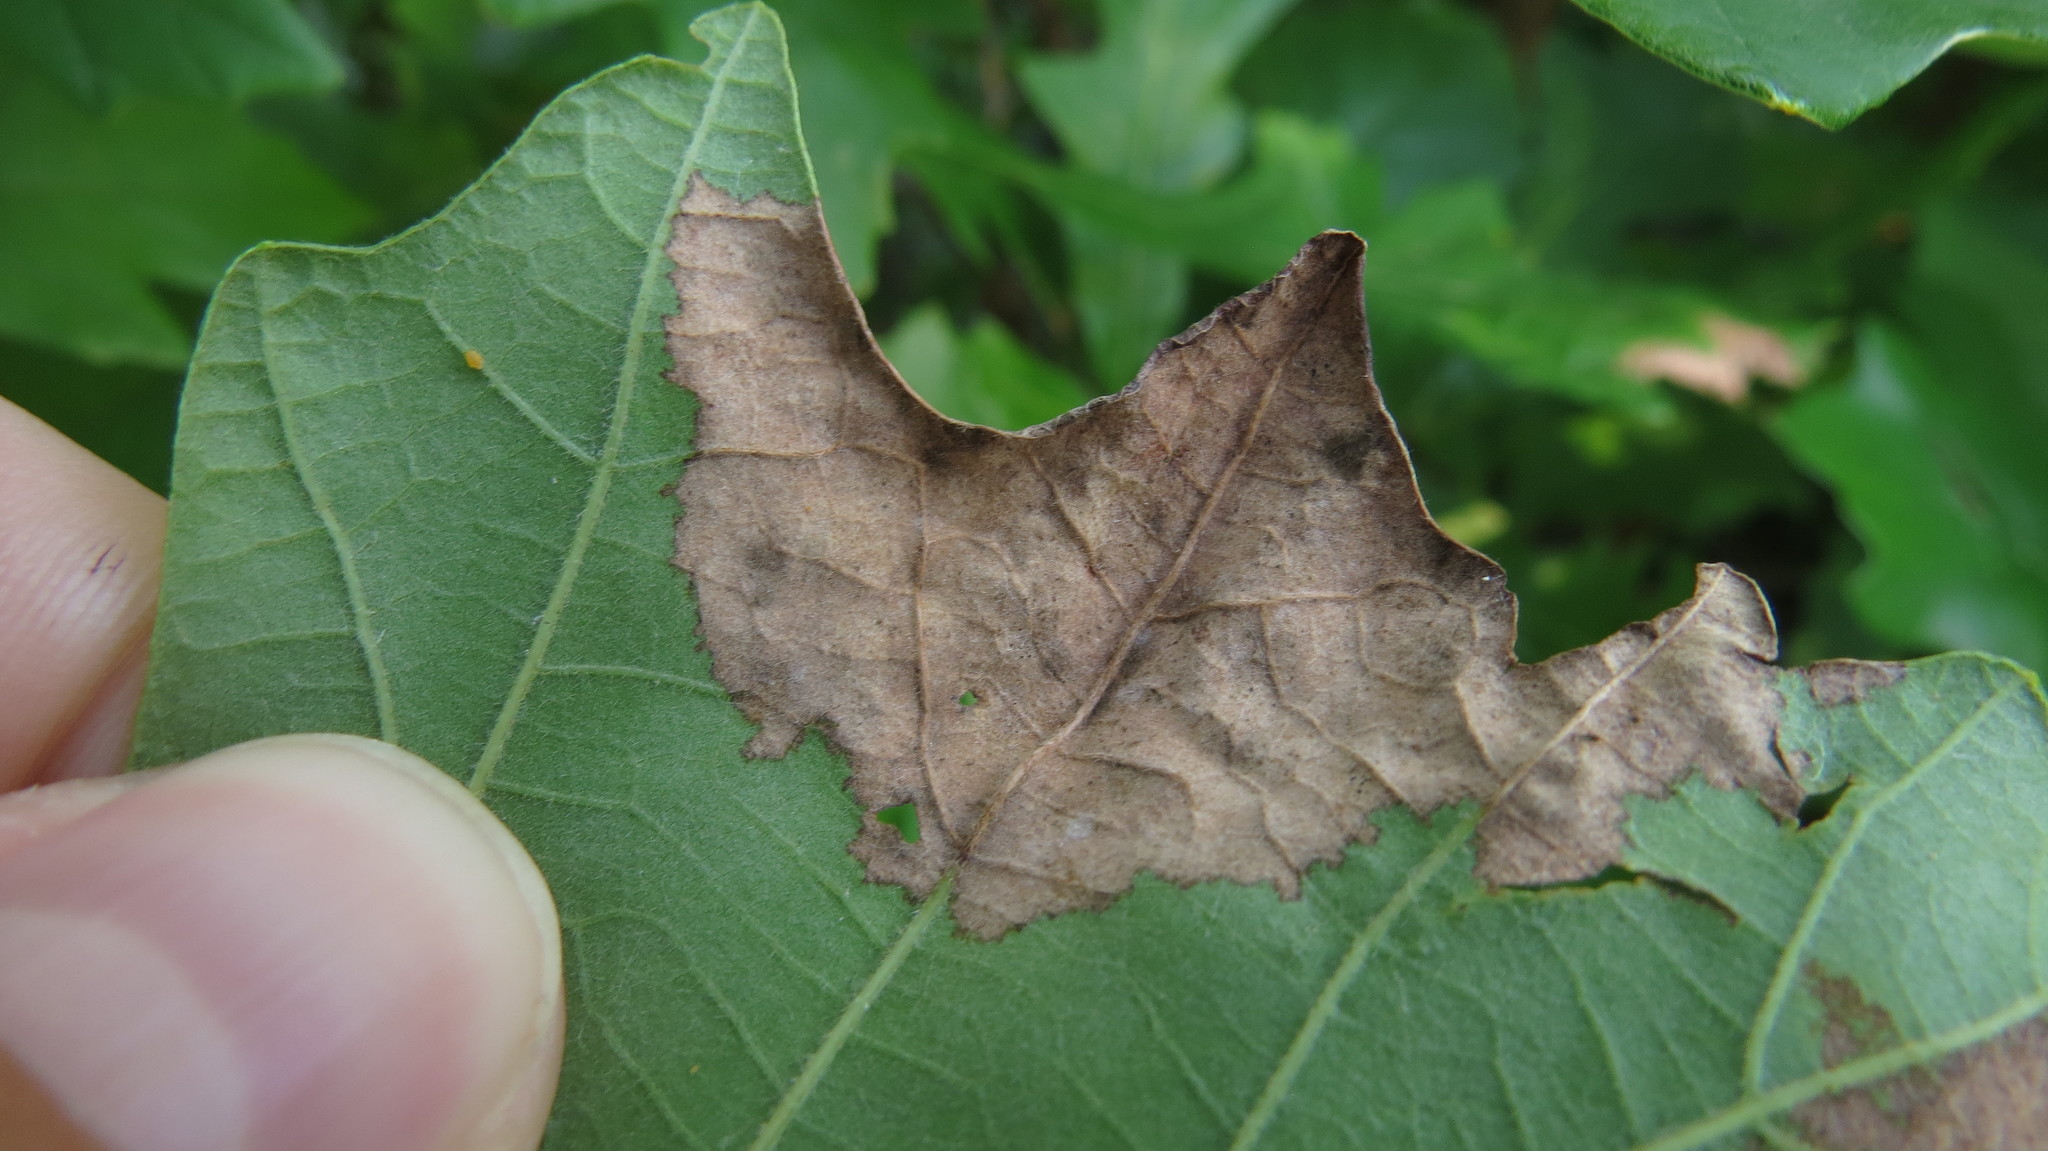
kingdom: Fungi
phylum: Ascomycota
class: Taphrinomycetes
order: Taphrinales
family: Taphrinaceae
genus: Taphrina
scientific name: Taphrina caerulescens
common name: Oak leaf blister
